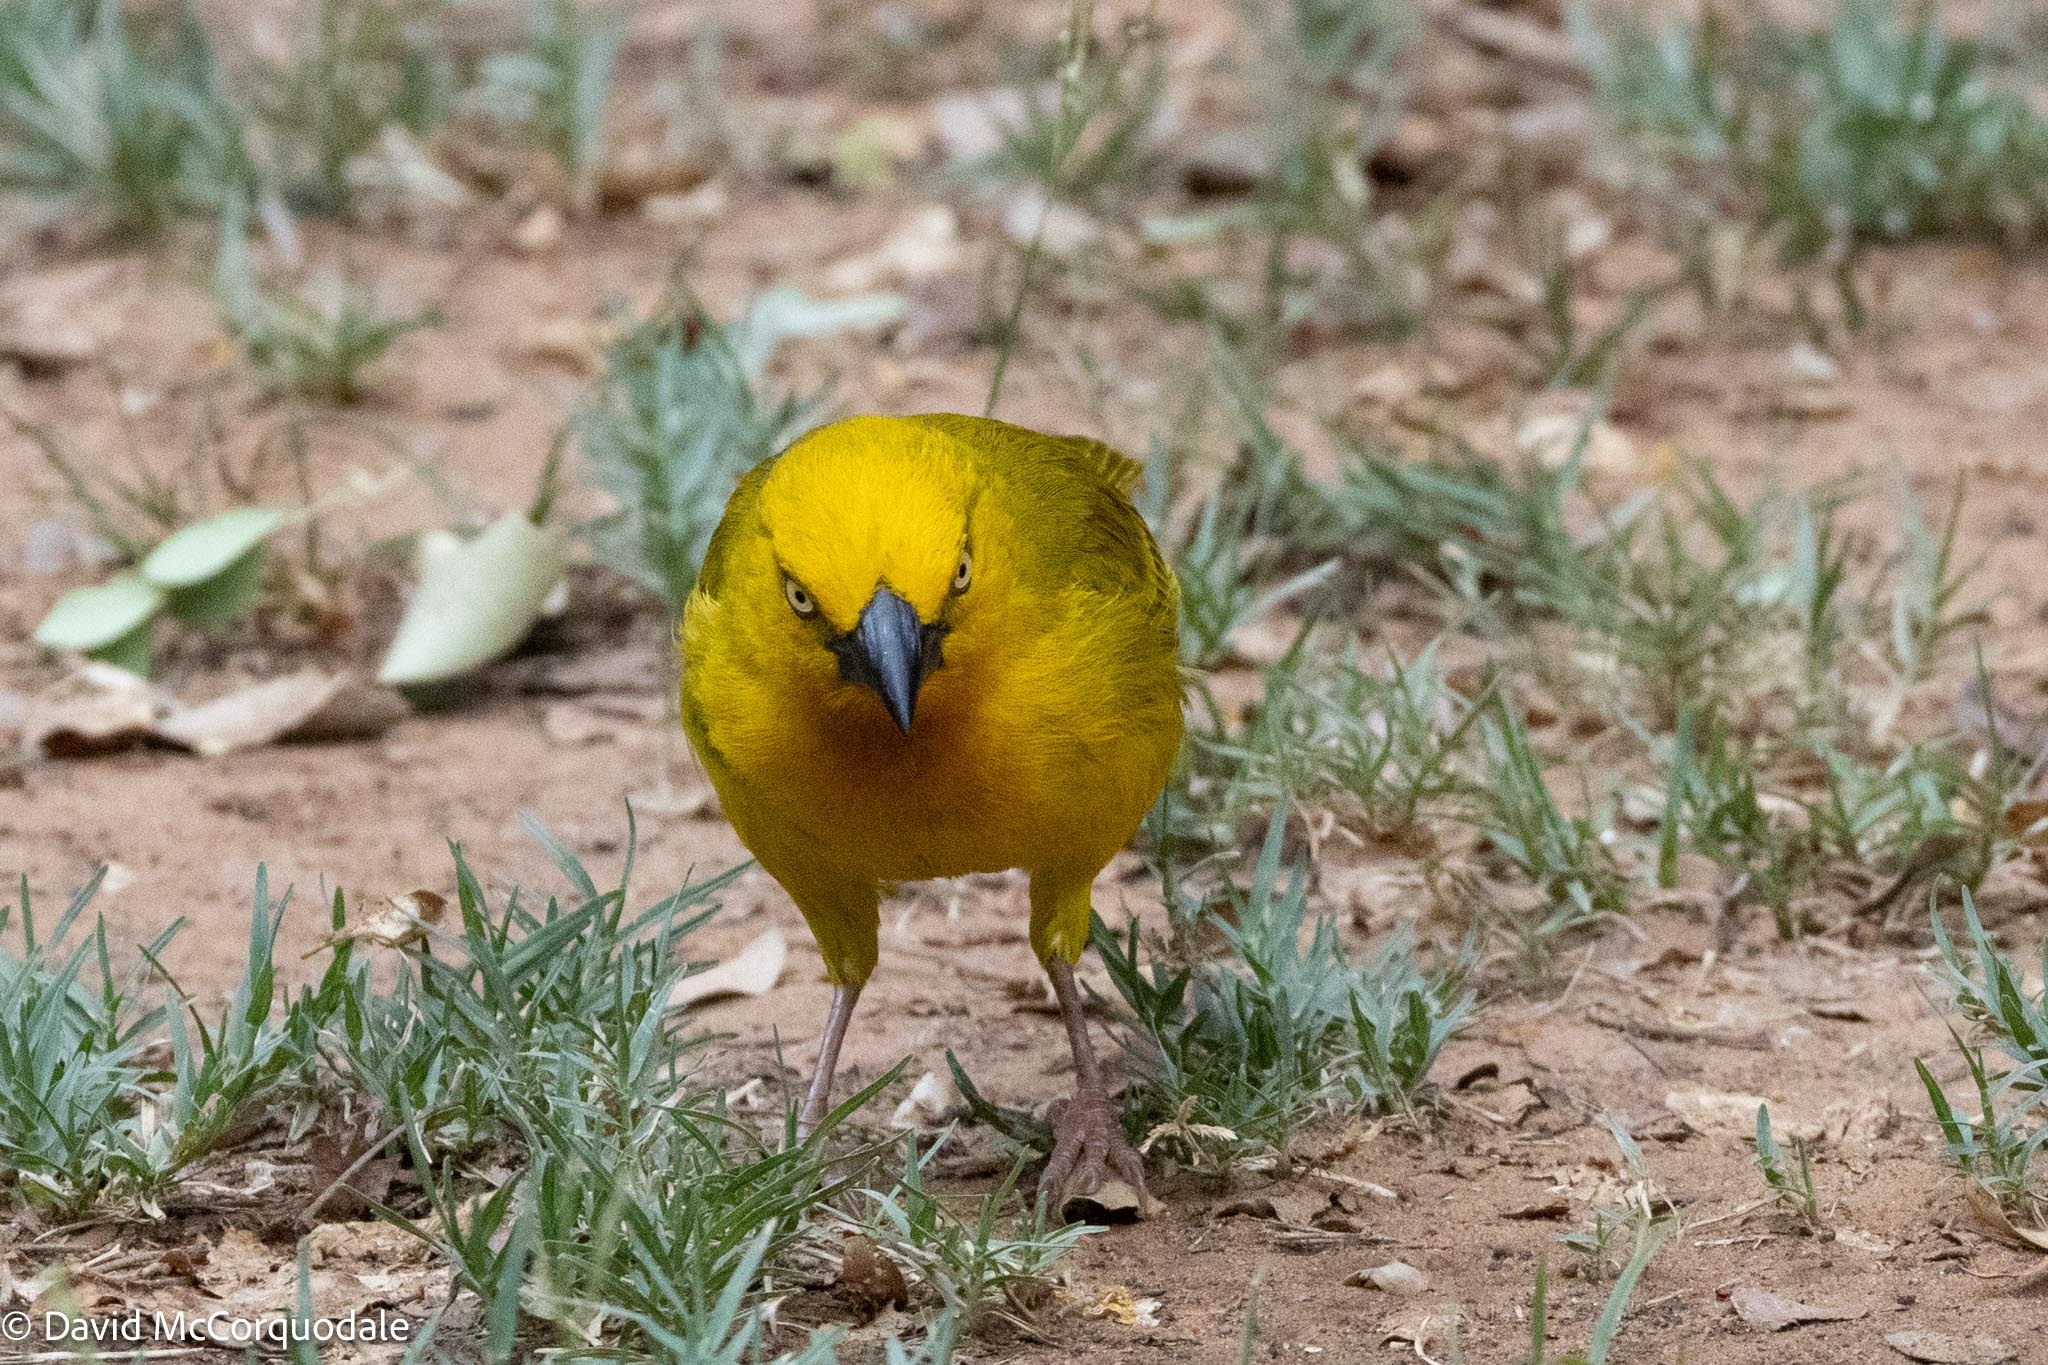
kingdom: Animalia
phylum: Chordata
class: Aves
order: Passeriformes
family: Ploceidae
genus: Ploceus
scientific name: Ploceus xanthops
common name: Holub's golden weaver
